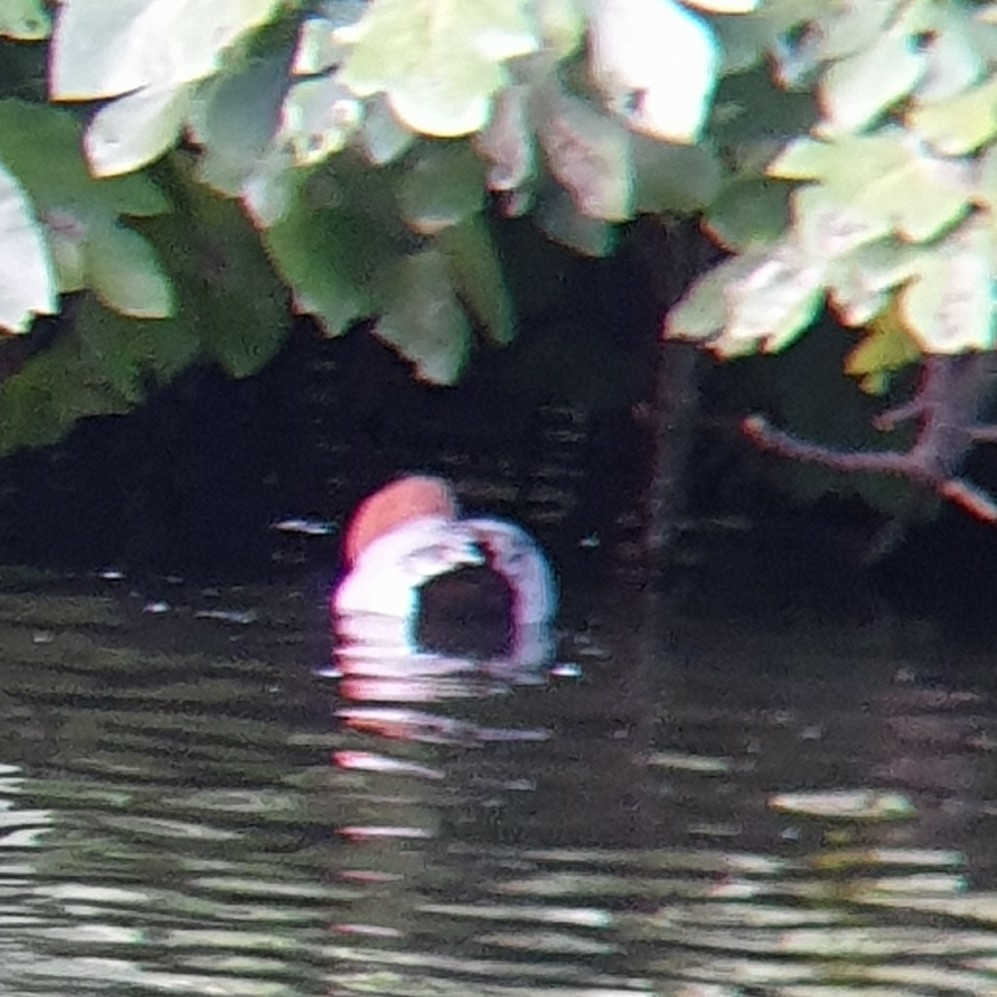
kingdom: Animalia
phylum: Chordata
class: Aves
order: Anseriformes
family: Anatidae
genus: Aythya
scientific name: Aythya ferina
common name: Common pochard
